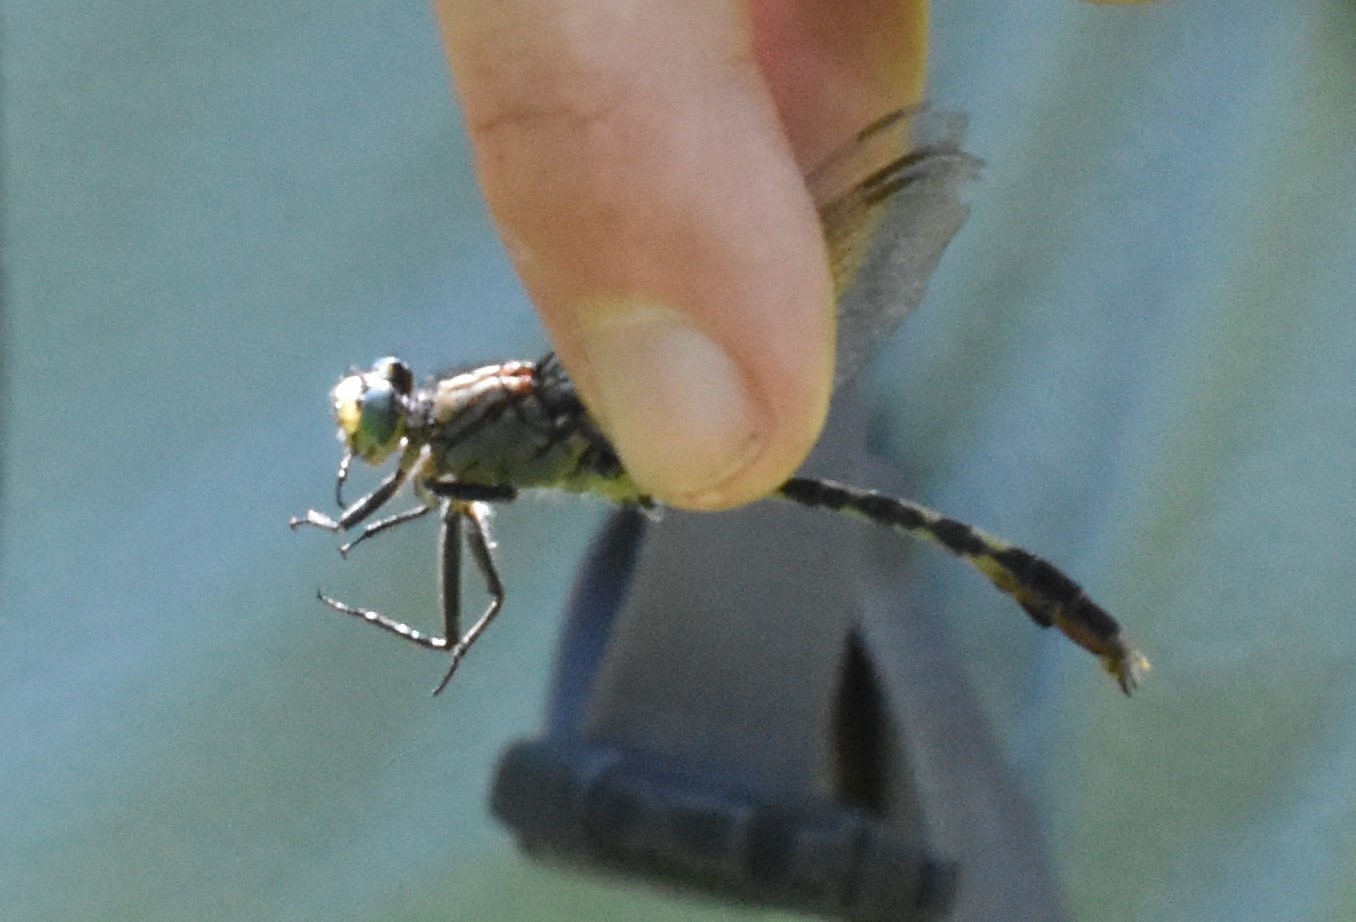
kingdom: Animalia
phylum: Arthropoda
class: Insecta
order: Odonata
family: Gomphidae
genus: Arigomphus
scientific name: Arigomphus villosipes
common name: Unicorn clubtail
